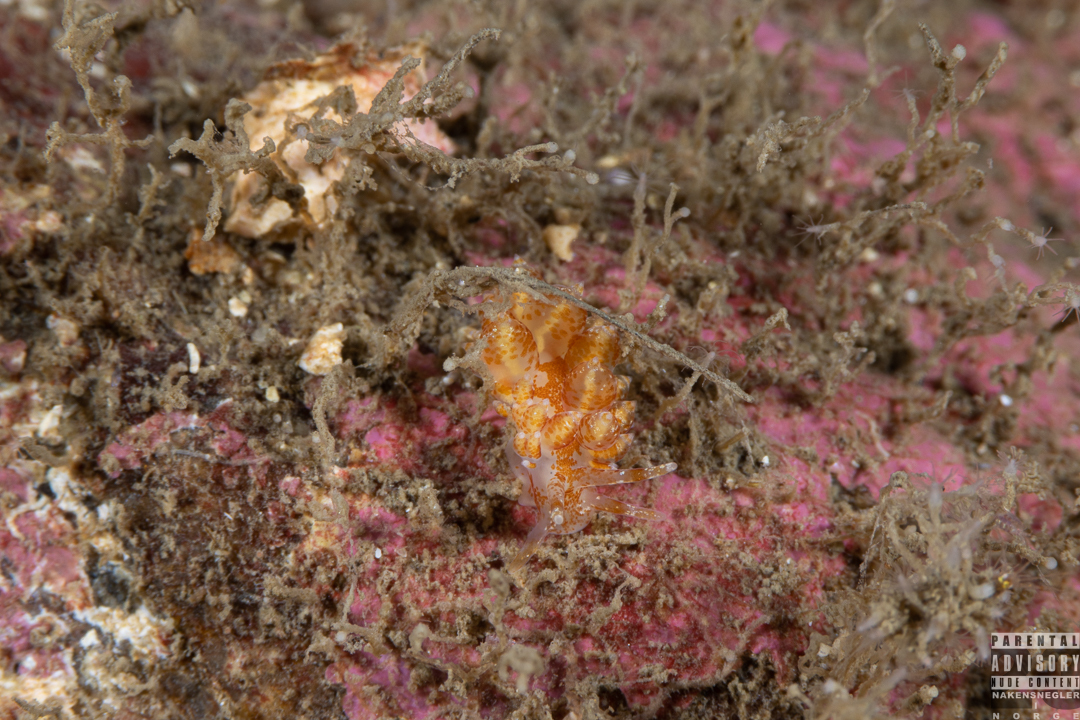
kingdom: Animalia
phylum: Mollusca
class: Gastropoda
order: Nudibranchia
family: Eubranchidae
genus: Amphorina
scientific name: Amphorina pallida
